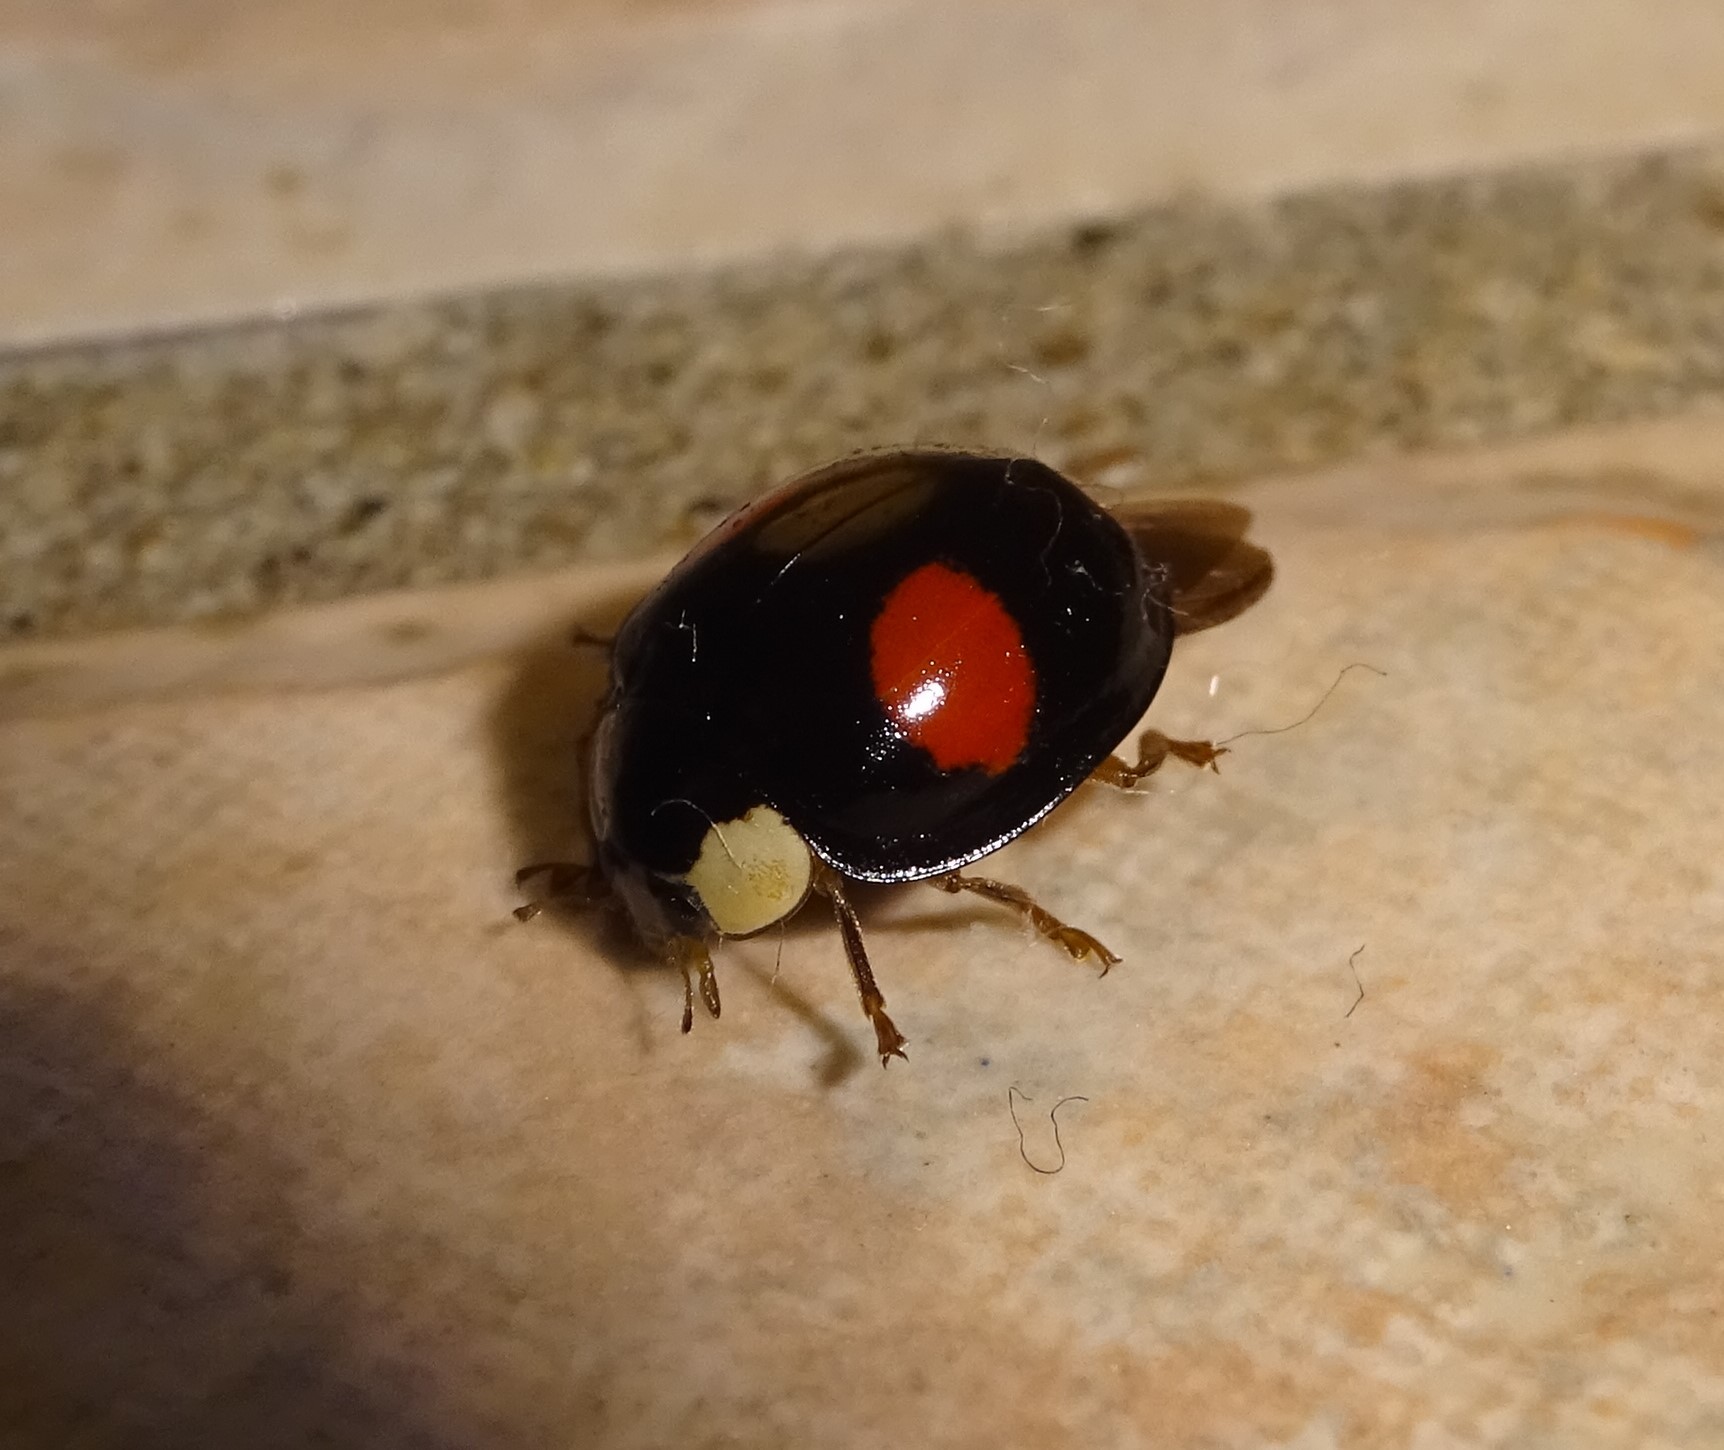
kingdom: Animalia
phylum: Arthropoda
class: Insecta
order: Coleoptera
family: Coccinellidae
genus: Harmonia
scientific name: Harmonia axyridis
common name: Harlequin ladybird
